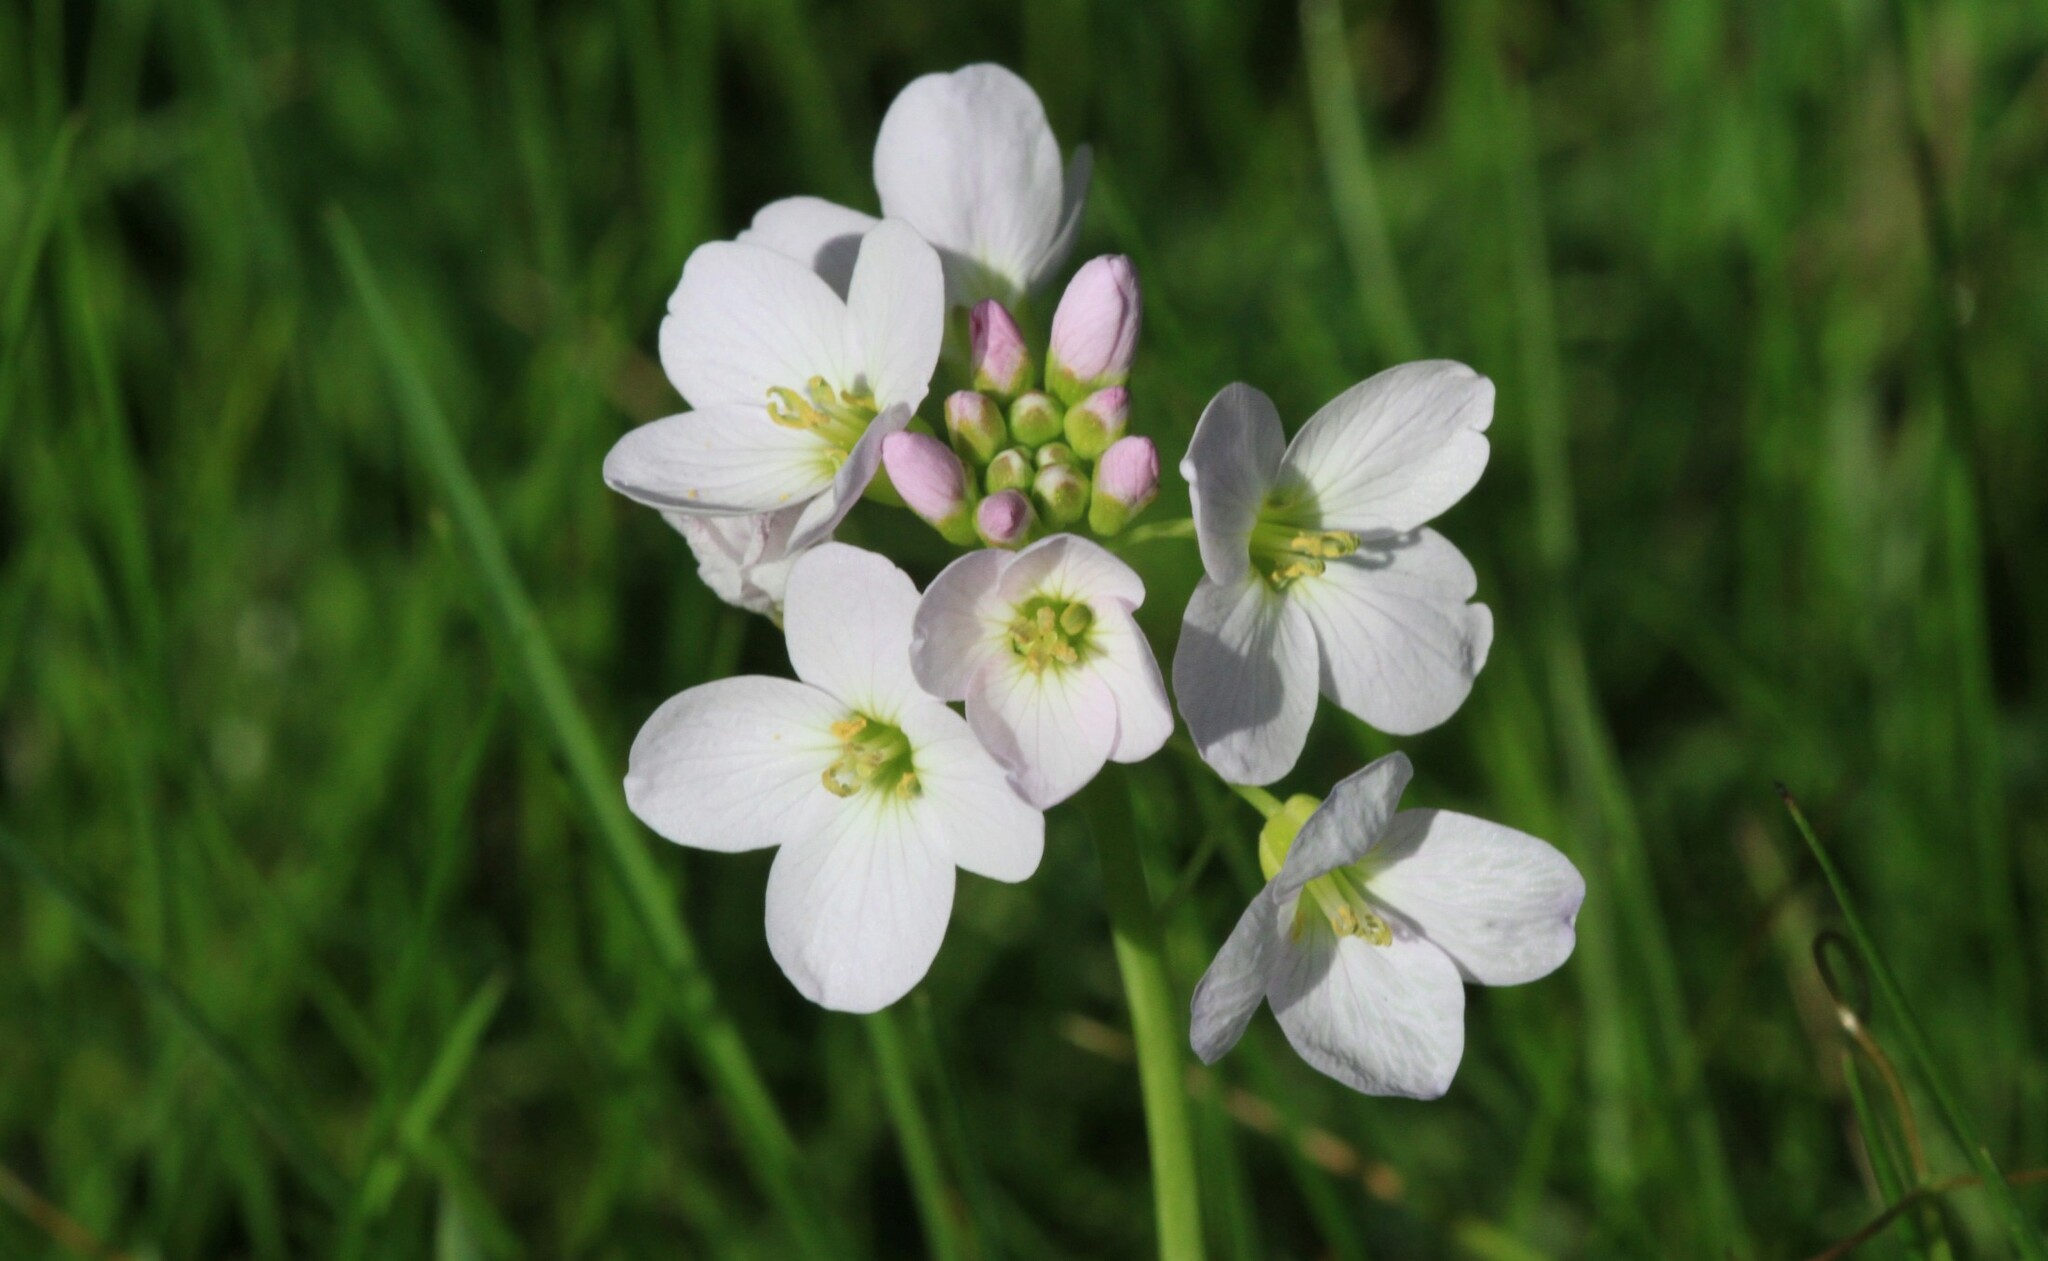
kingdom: Plantae
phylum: Tracheophyta
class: Magnoliopsida
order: Brassicales
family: Brassicaceae
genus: Cardamine
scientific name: Cardamine pratensis
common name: Cuckoo flower
